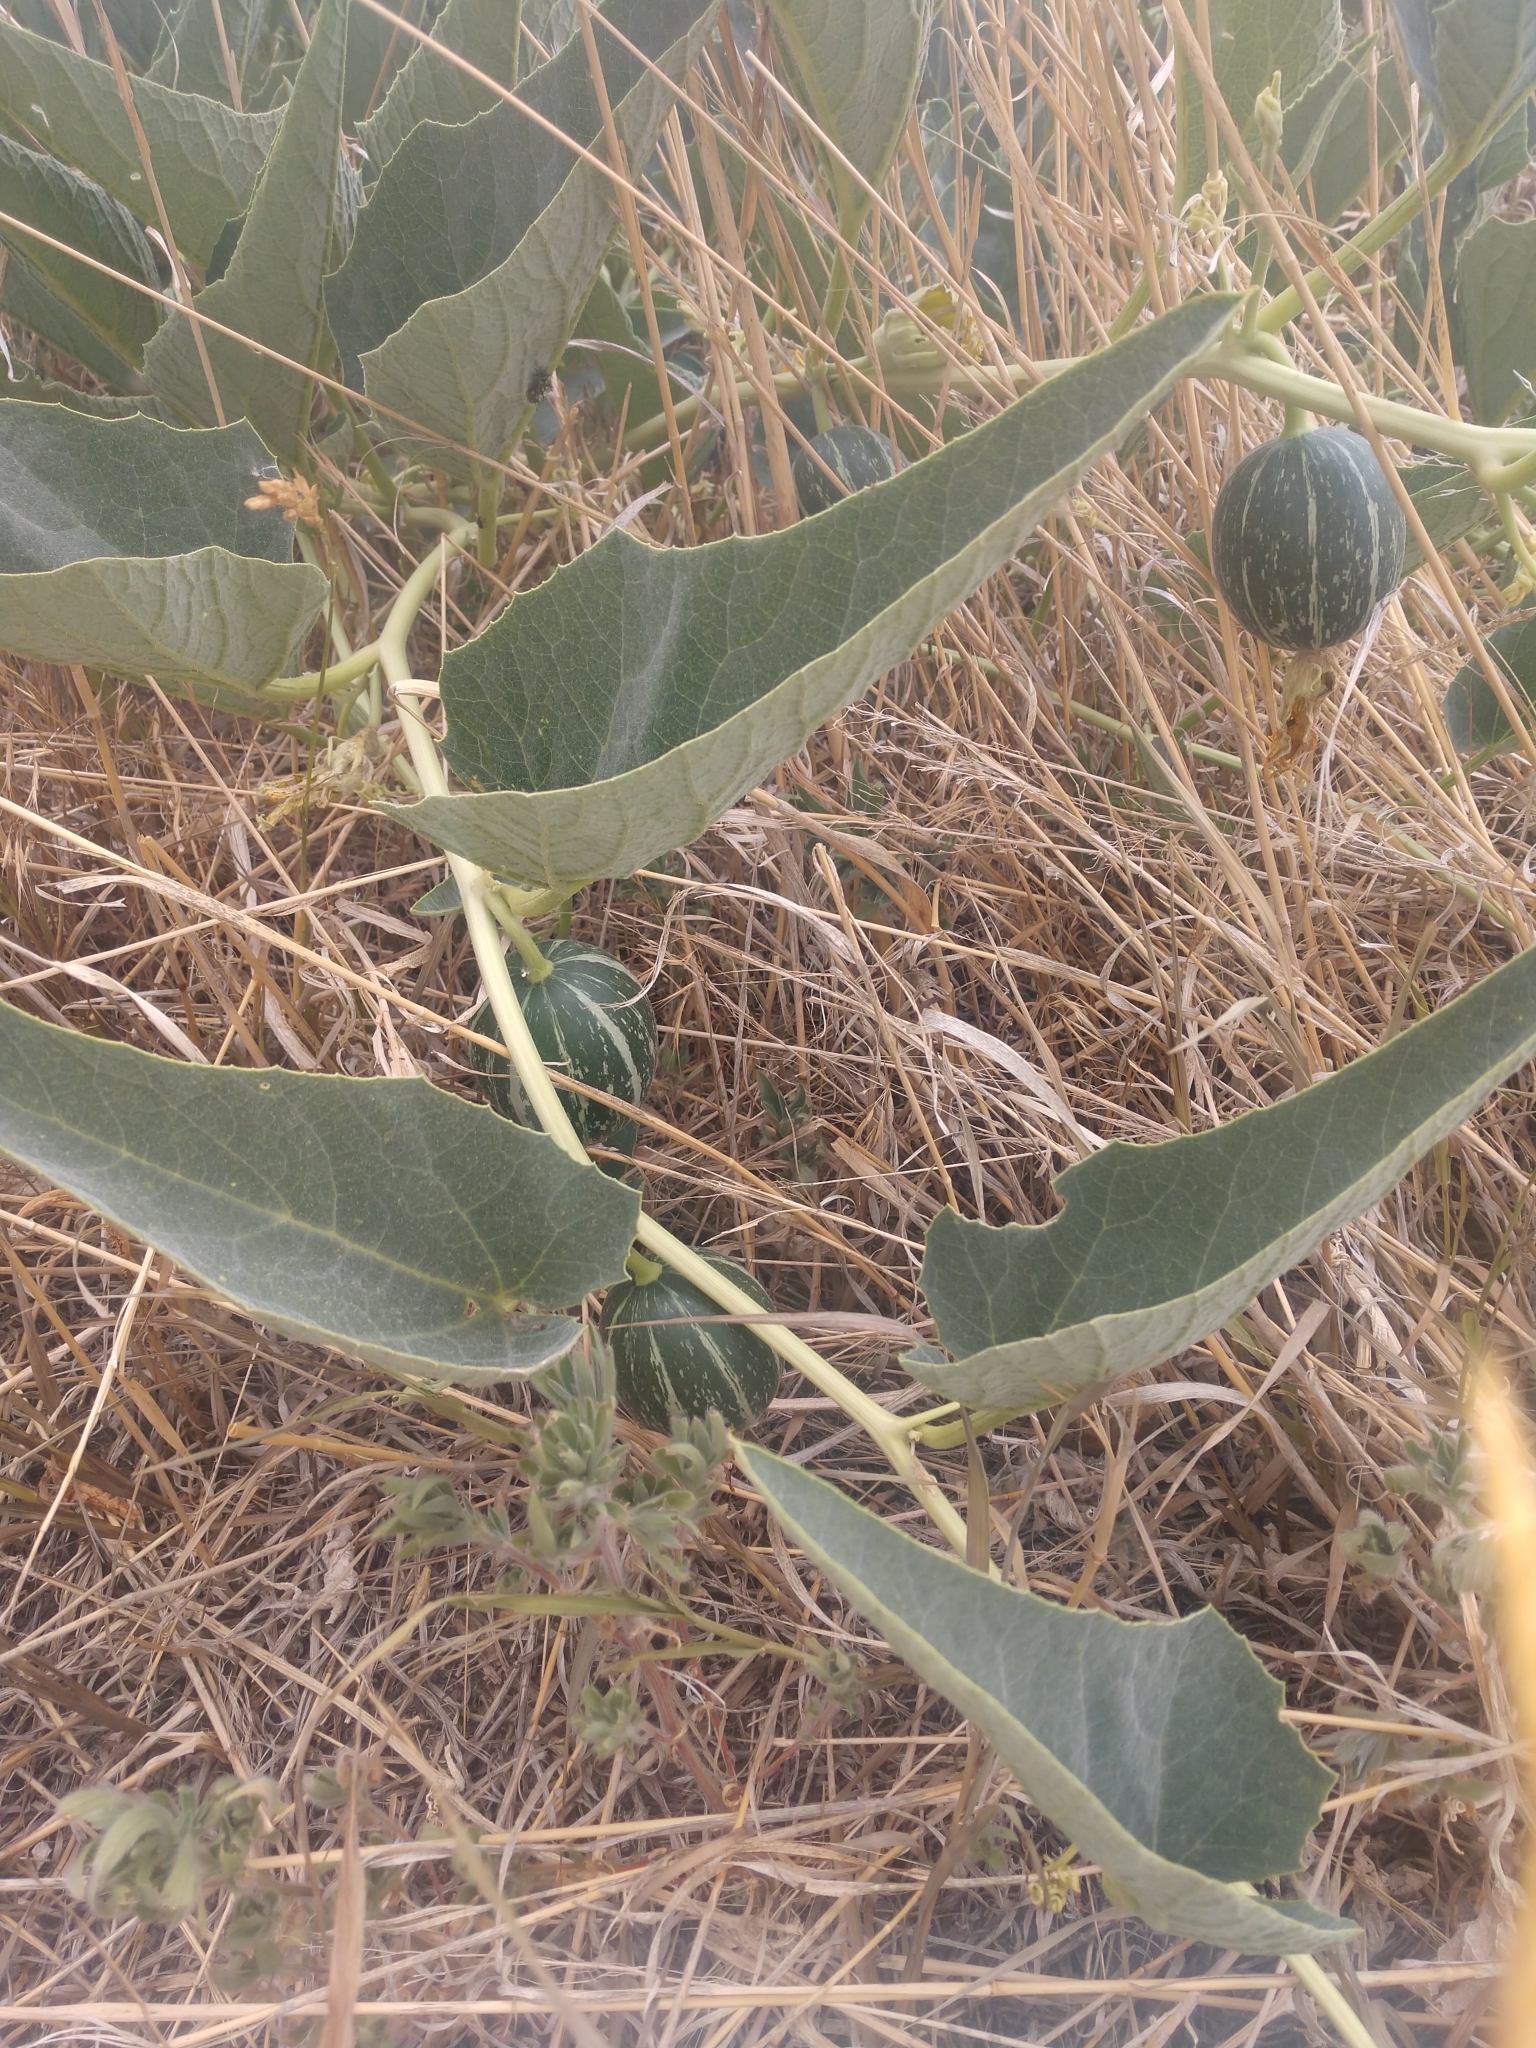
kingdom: Plantae
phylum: Tracheophyta
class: Magnoliopsida
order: Cucurbitales
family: Cucurbitaceae
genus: Cucurbita
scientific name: Cucurbita foetidissima
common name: Buffalo gourd
